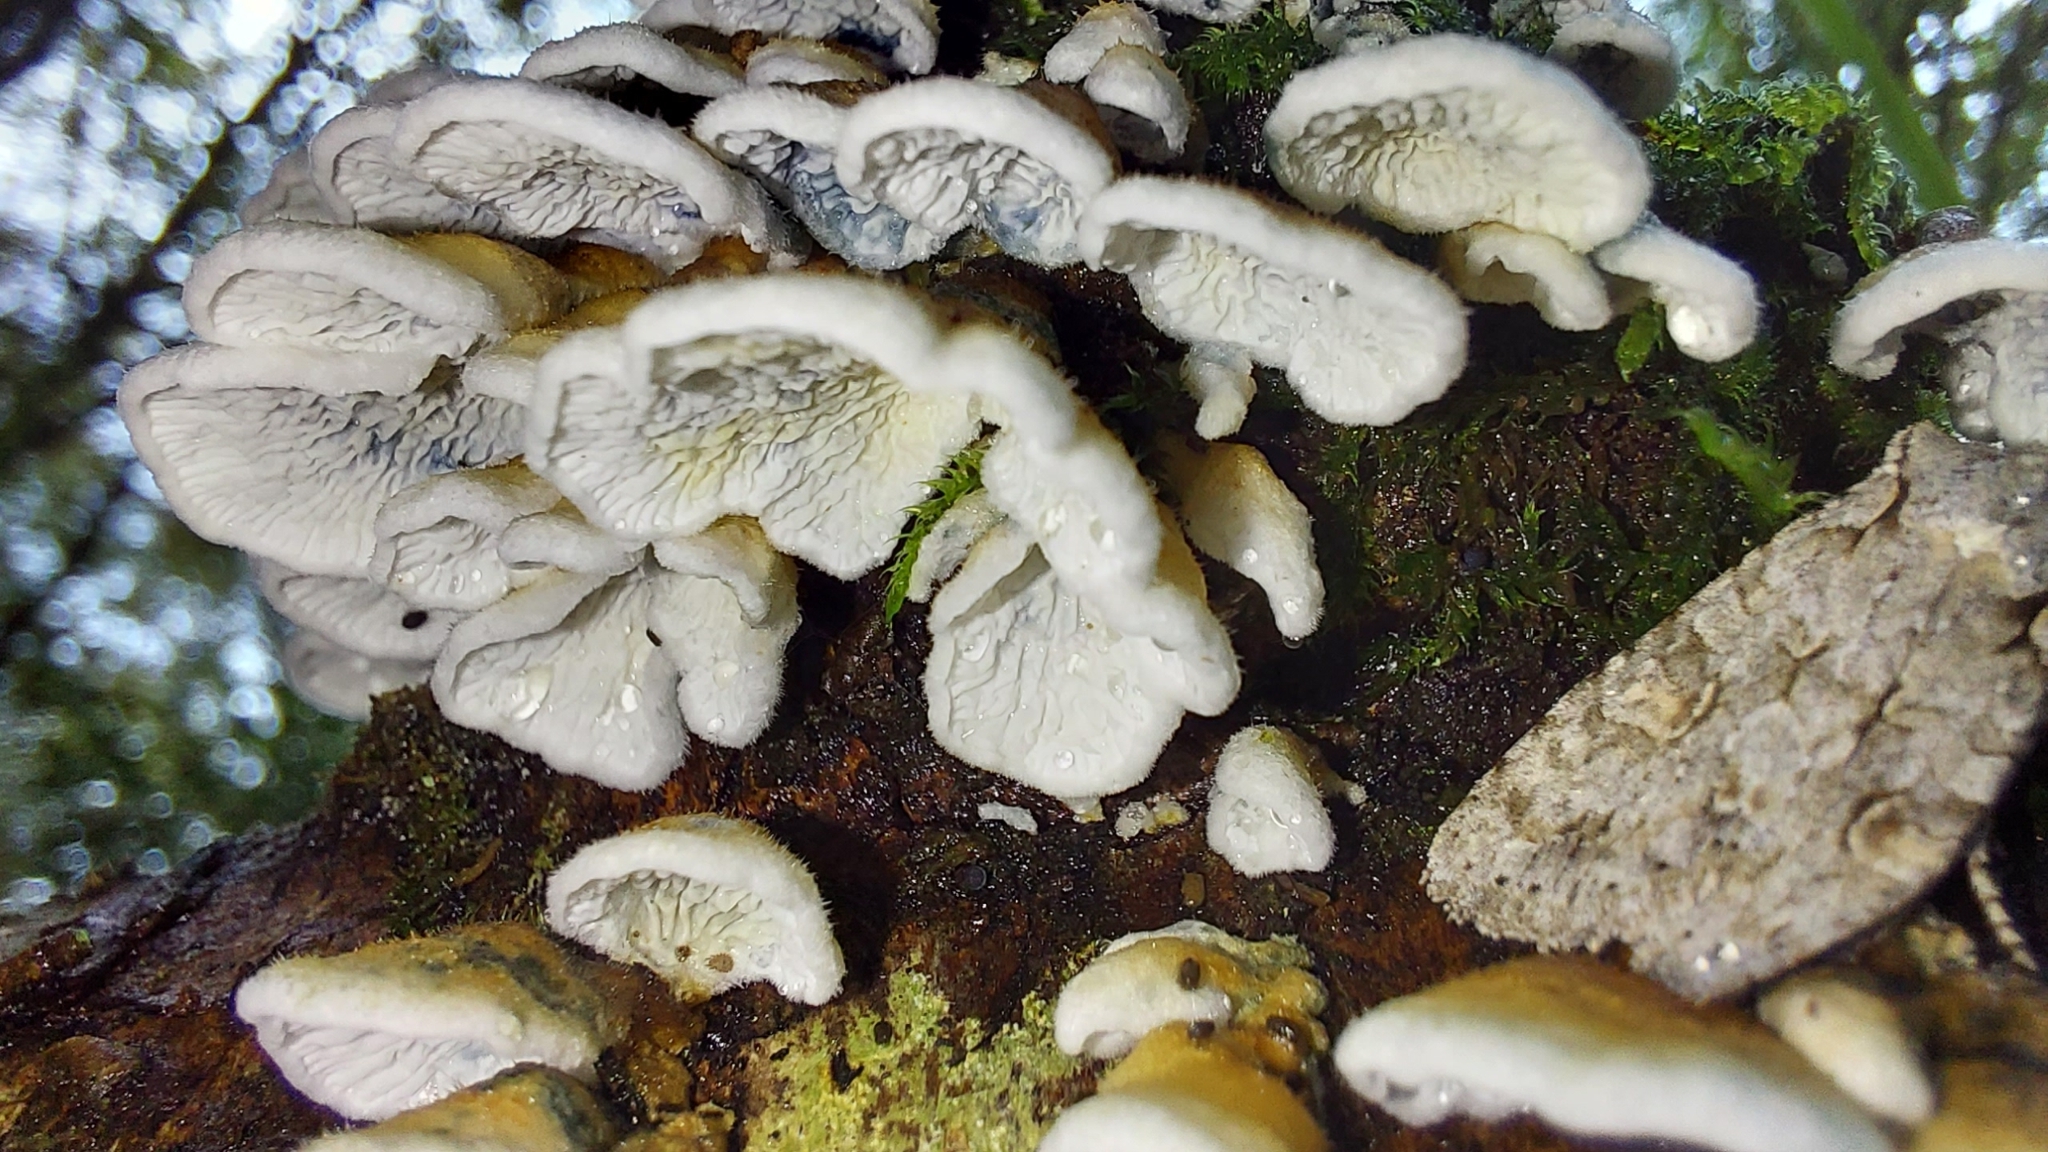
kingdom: Fungi
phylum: Basidiomycota
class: Agaricomycetes
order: Amylocorticiales
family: Amylocorticiaceae
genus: Plicaturopsis
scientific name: Plicaturopsis crispa
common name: Crimped gill
